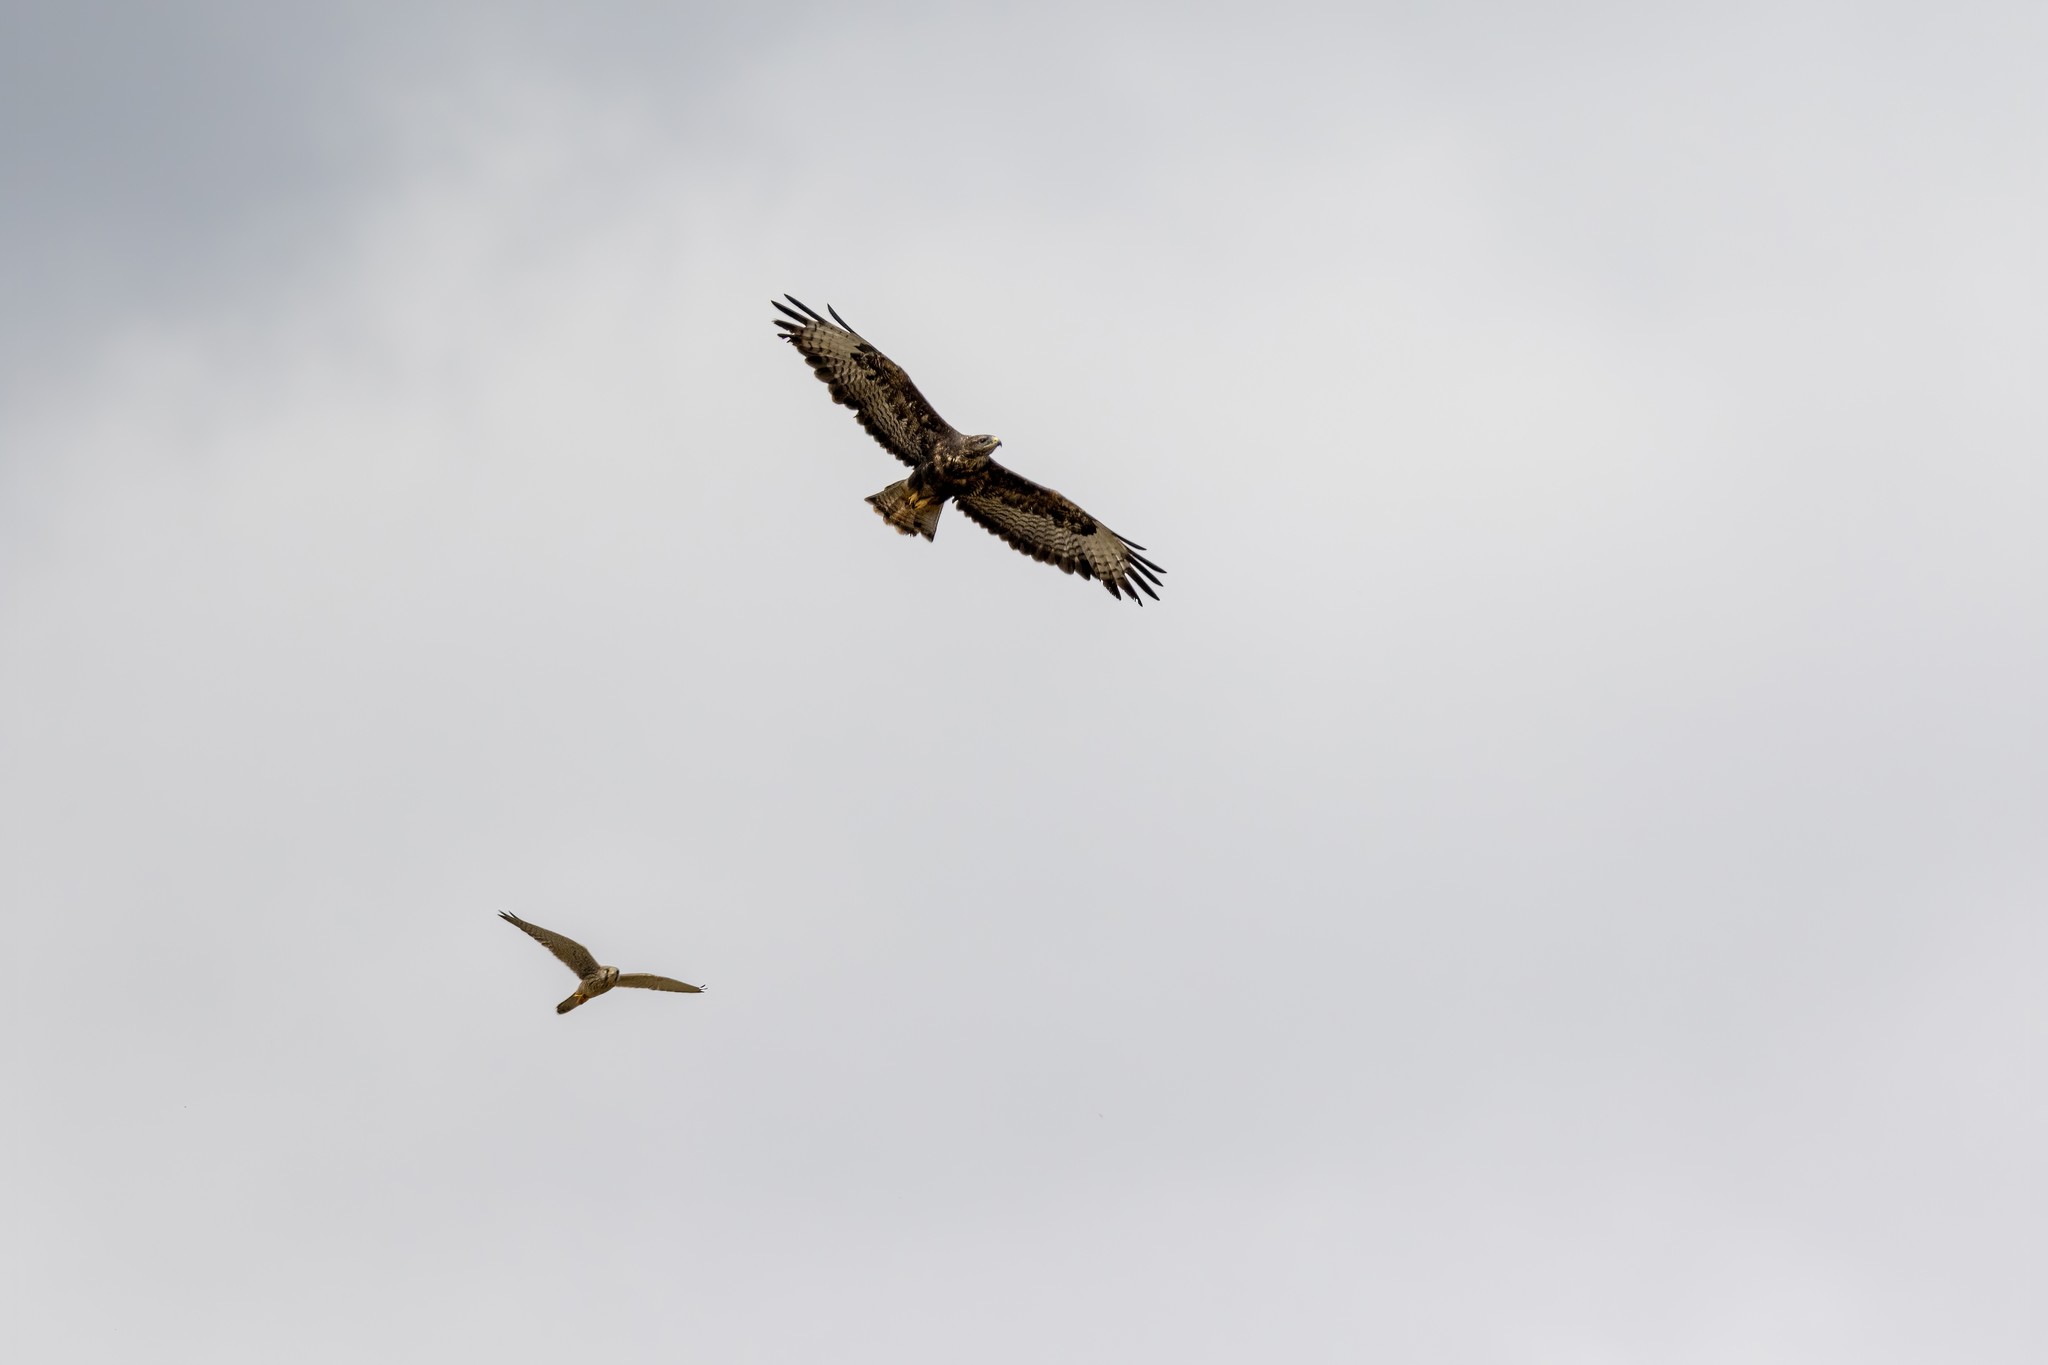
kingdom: Animalia
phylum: Chordata
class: Aves
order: Accipitriformes
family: Accipitridae
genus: Buteo
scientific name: Buteo buteo
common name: Common buzzard
